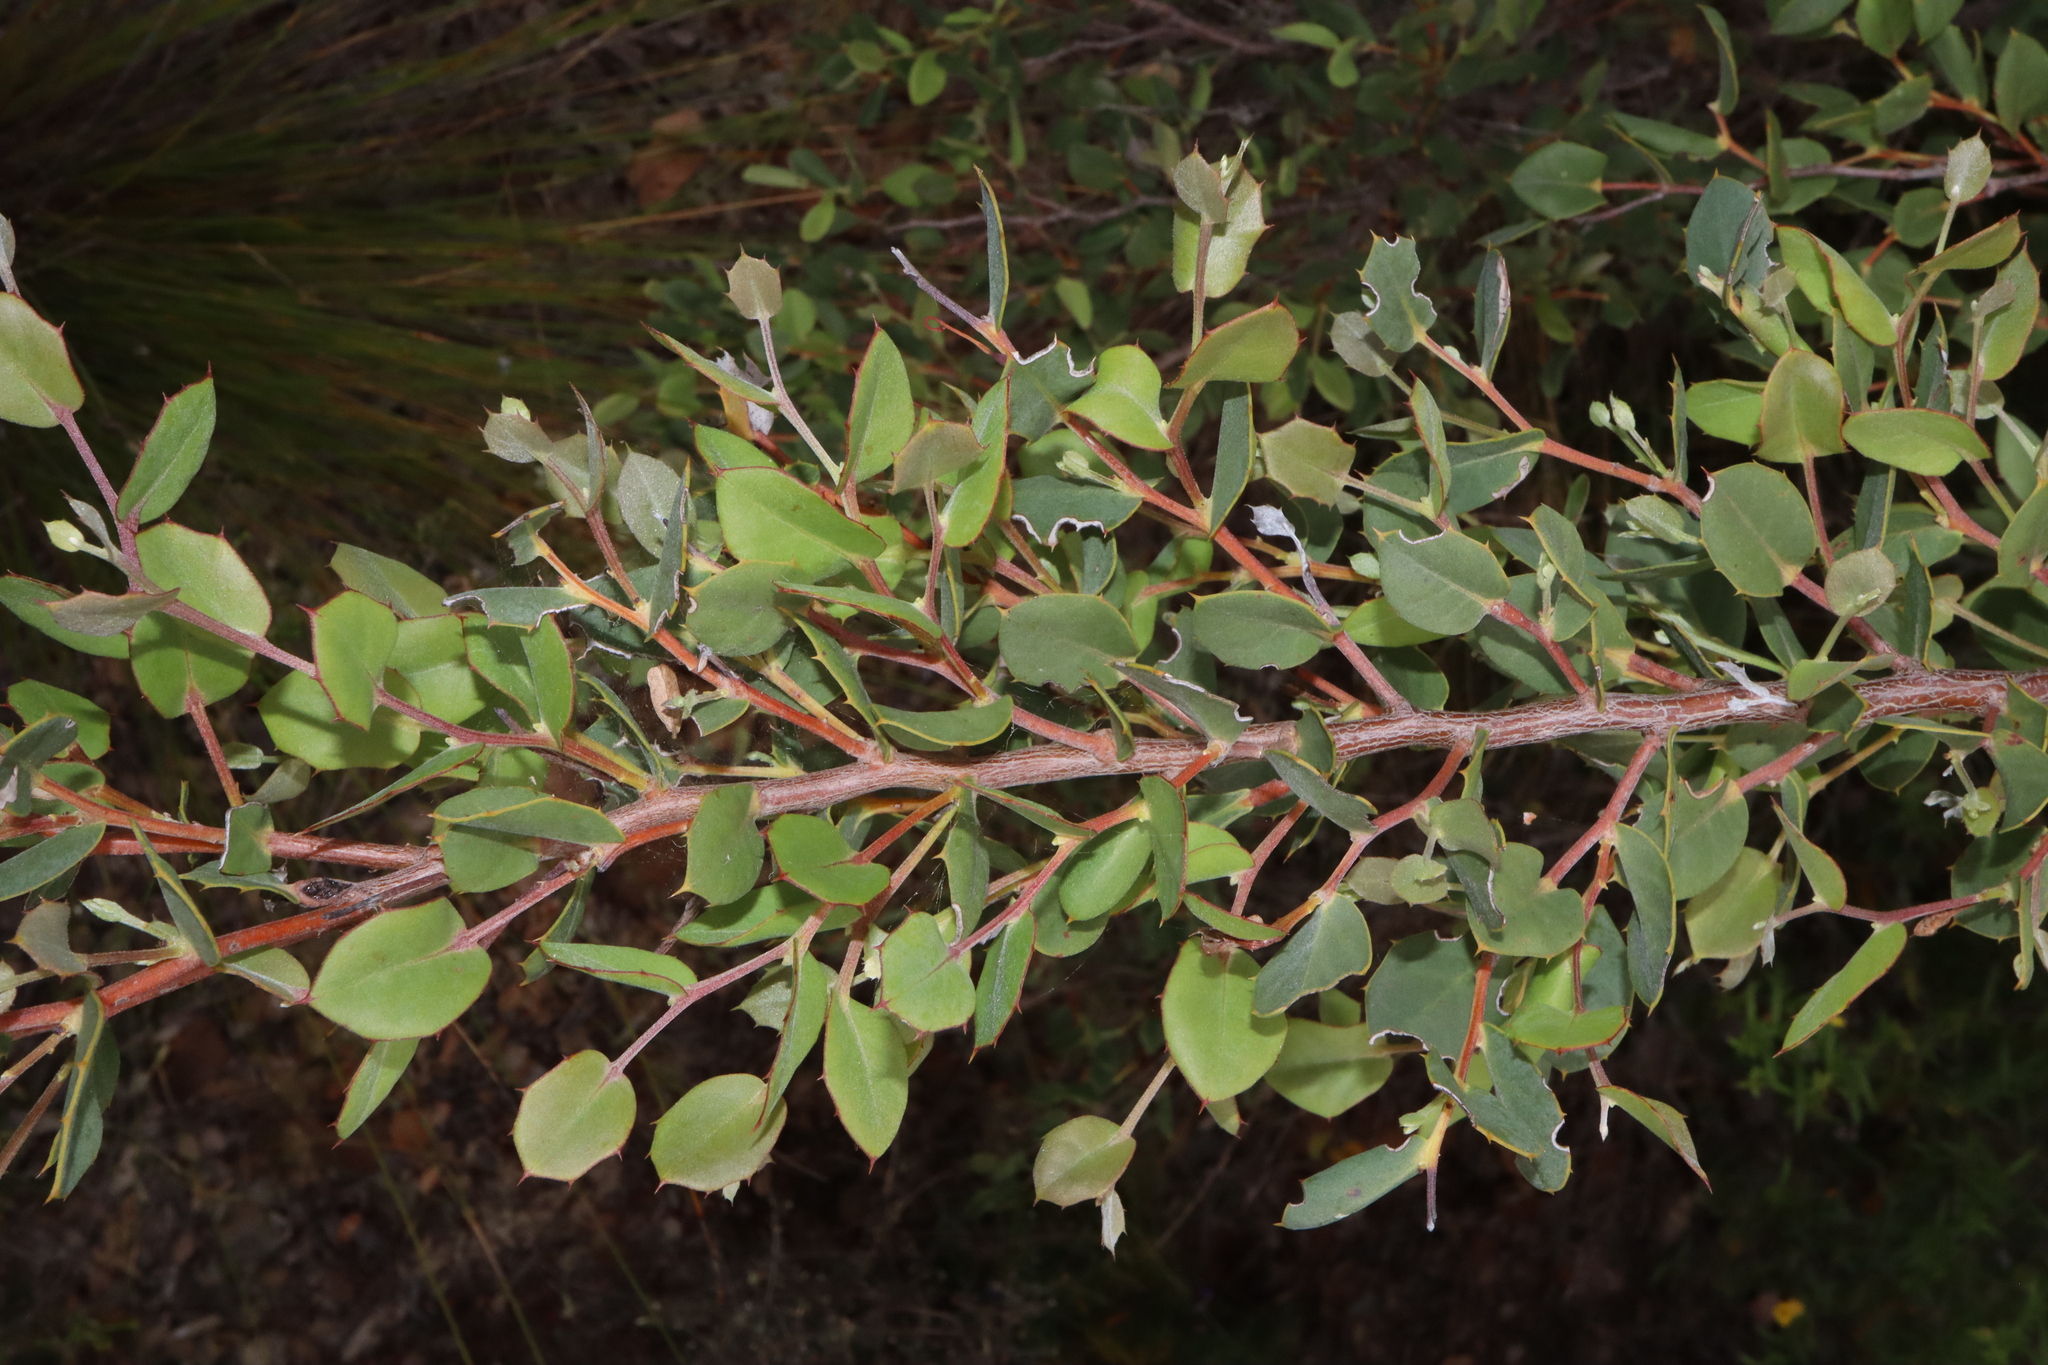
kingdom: Plantae
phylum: Tracheophyta
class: Magnoliopsida
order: Proteales
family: Proteaceae
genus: Hakea
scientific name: Hakea denticulata
